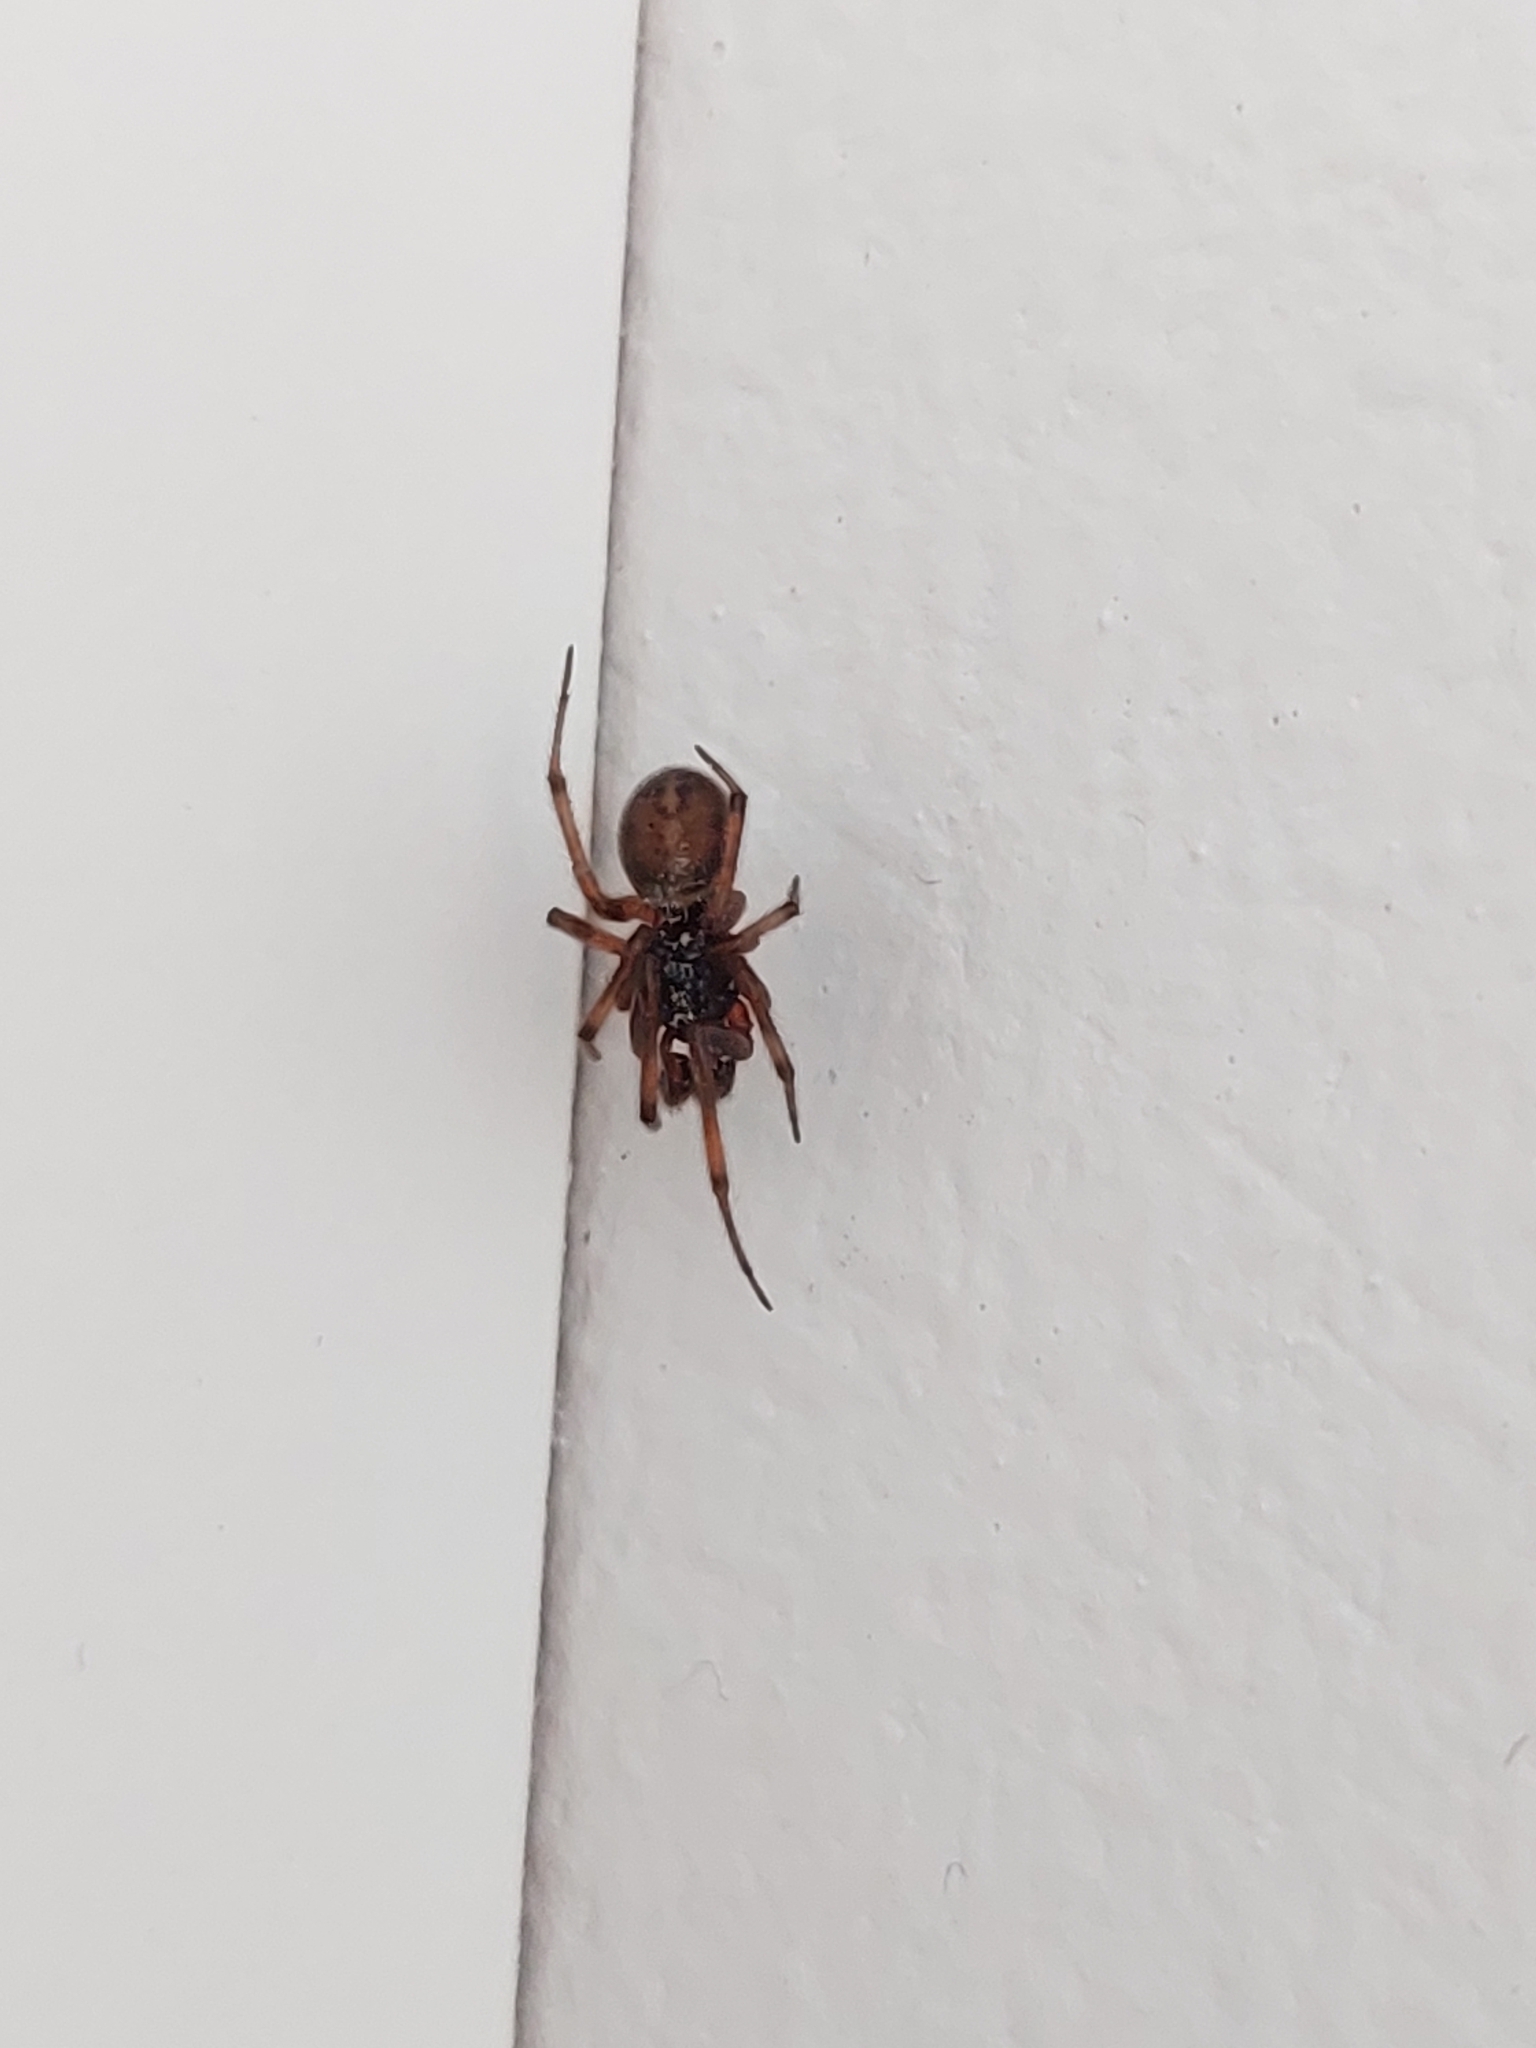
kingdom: Animalia
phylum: Arthropoda
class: Arachnida
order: Araneae
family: Theridiidae
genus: Steatoda
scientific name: Steatoda bipunctata
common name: False widow
